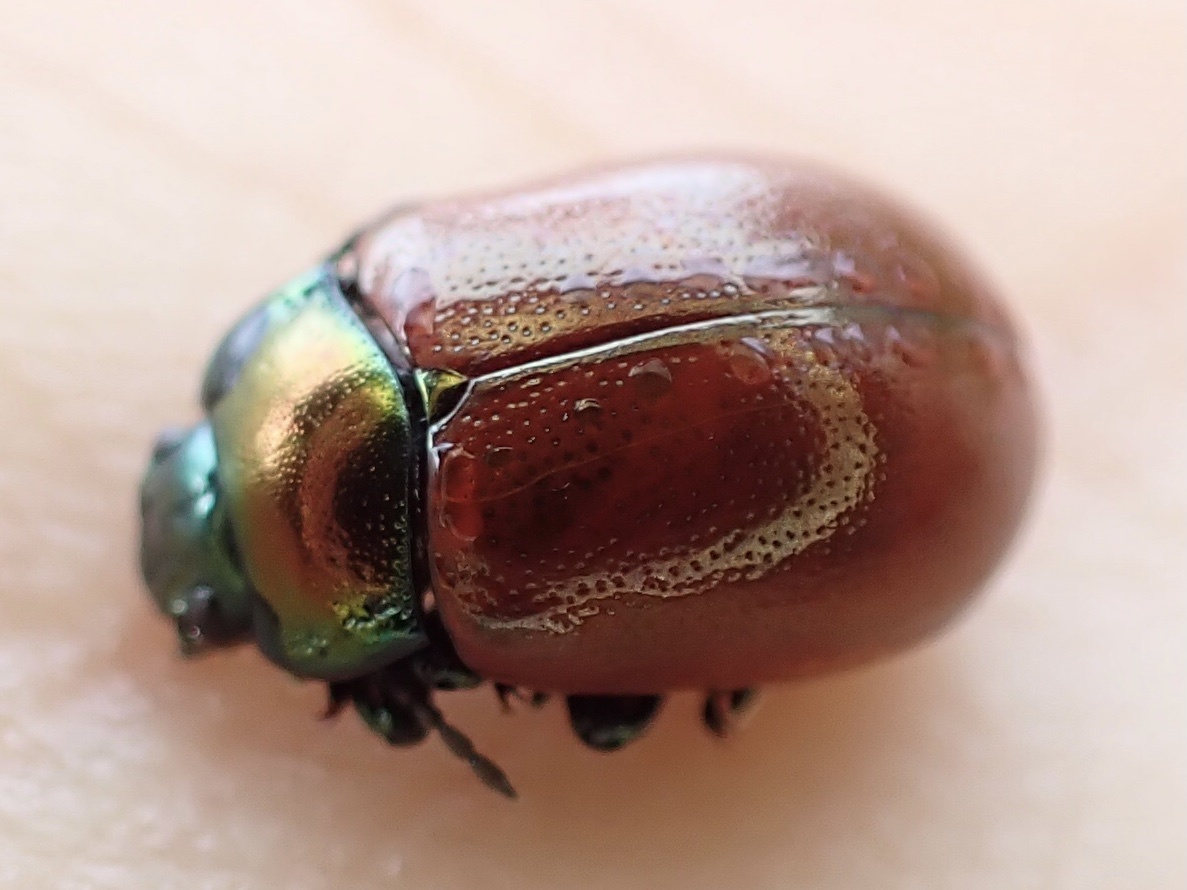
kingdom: Animalia
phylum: Arthropoda
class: Insecta
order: Coleoptera
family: Chrysomelidae
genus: Chrysomela
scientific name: Chrysomela polita
